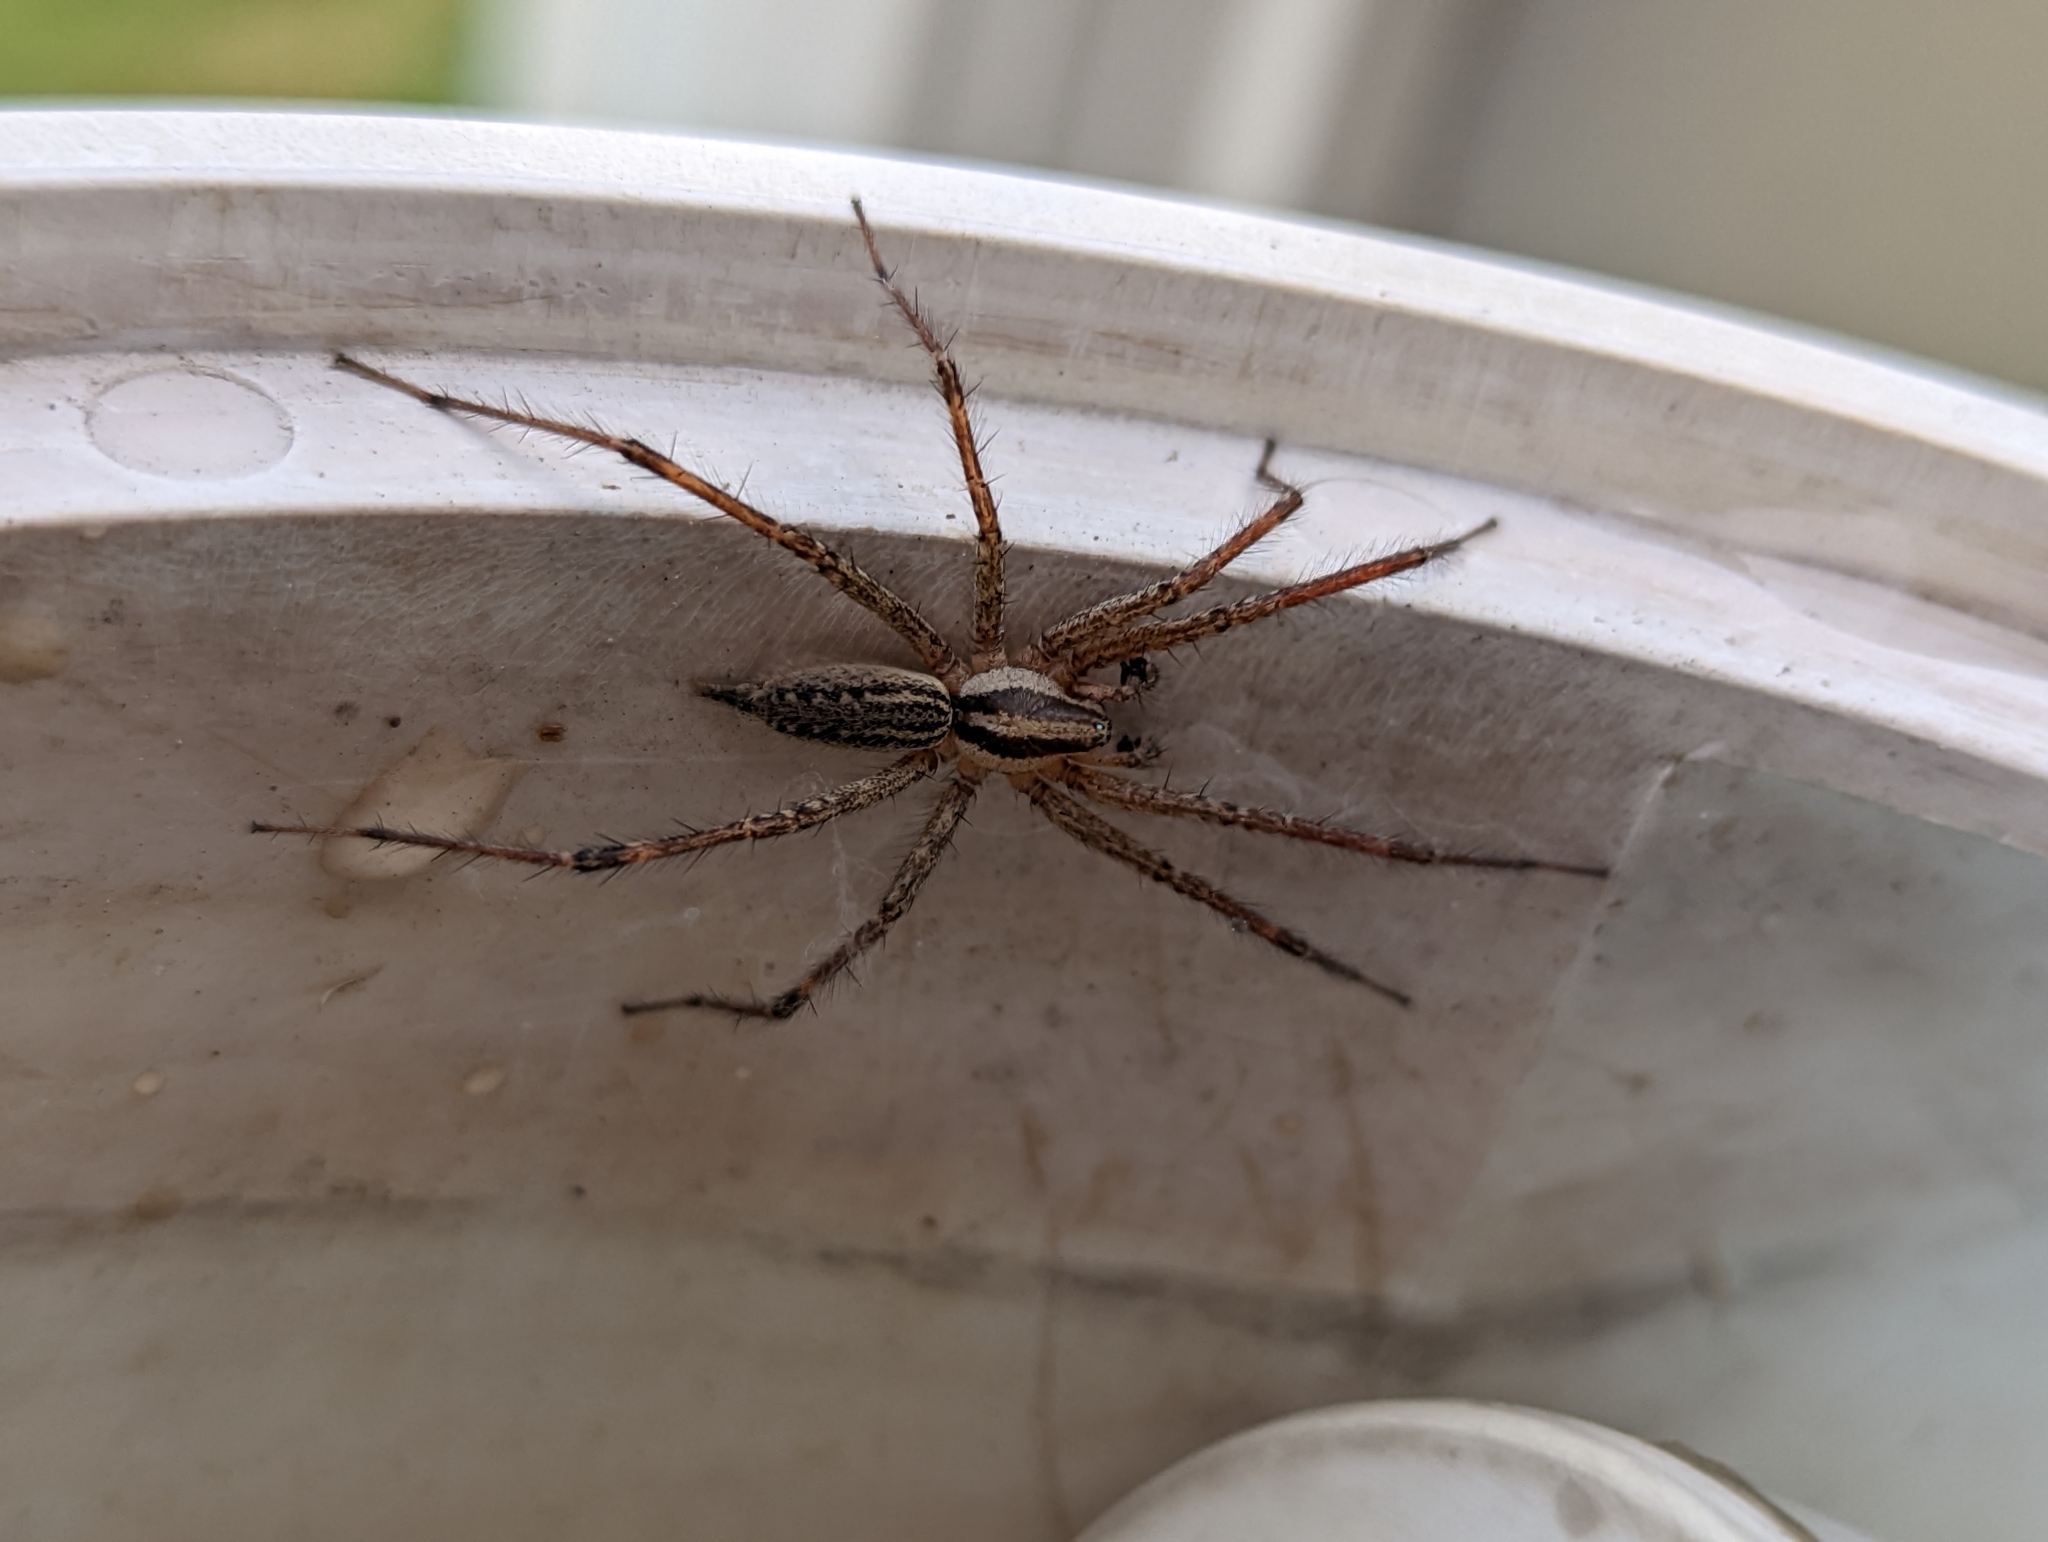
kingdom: Animalia
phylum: Arthropoda
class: Arachnida
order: Araneae
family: Agelenidae
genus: Agelenopsis
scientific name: Agelenopsis
